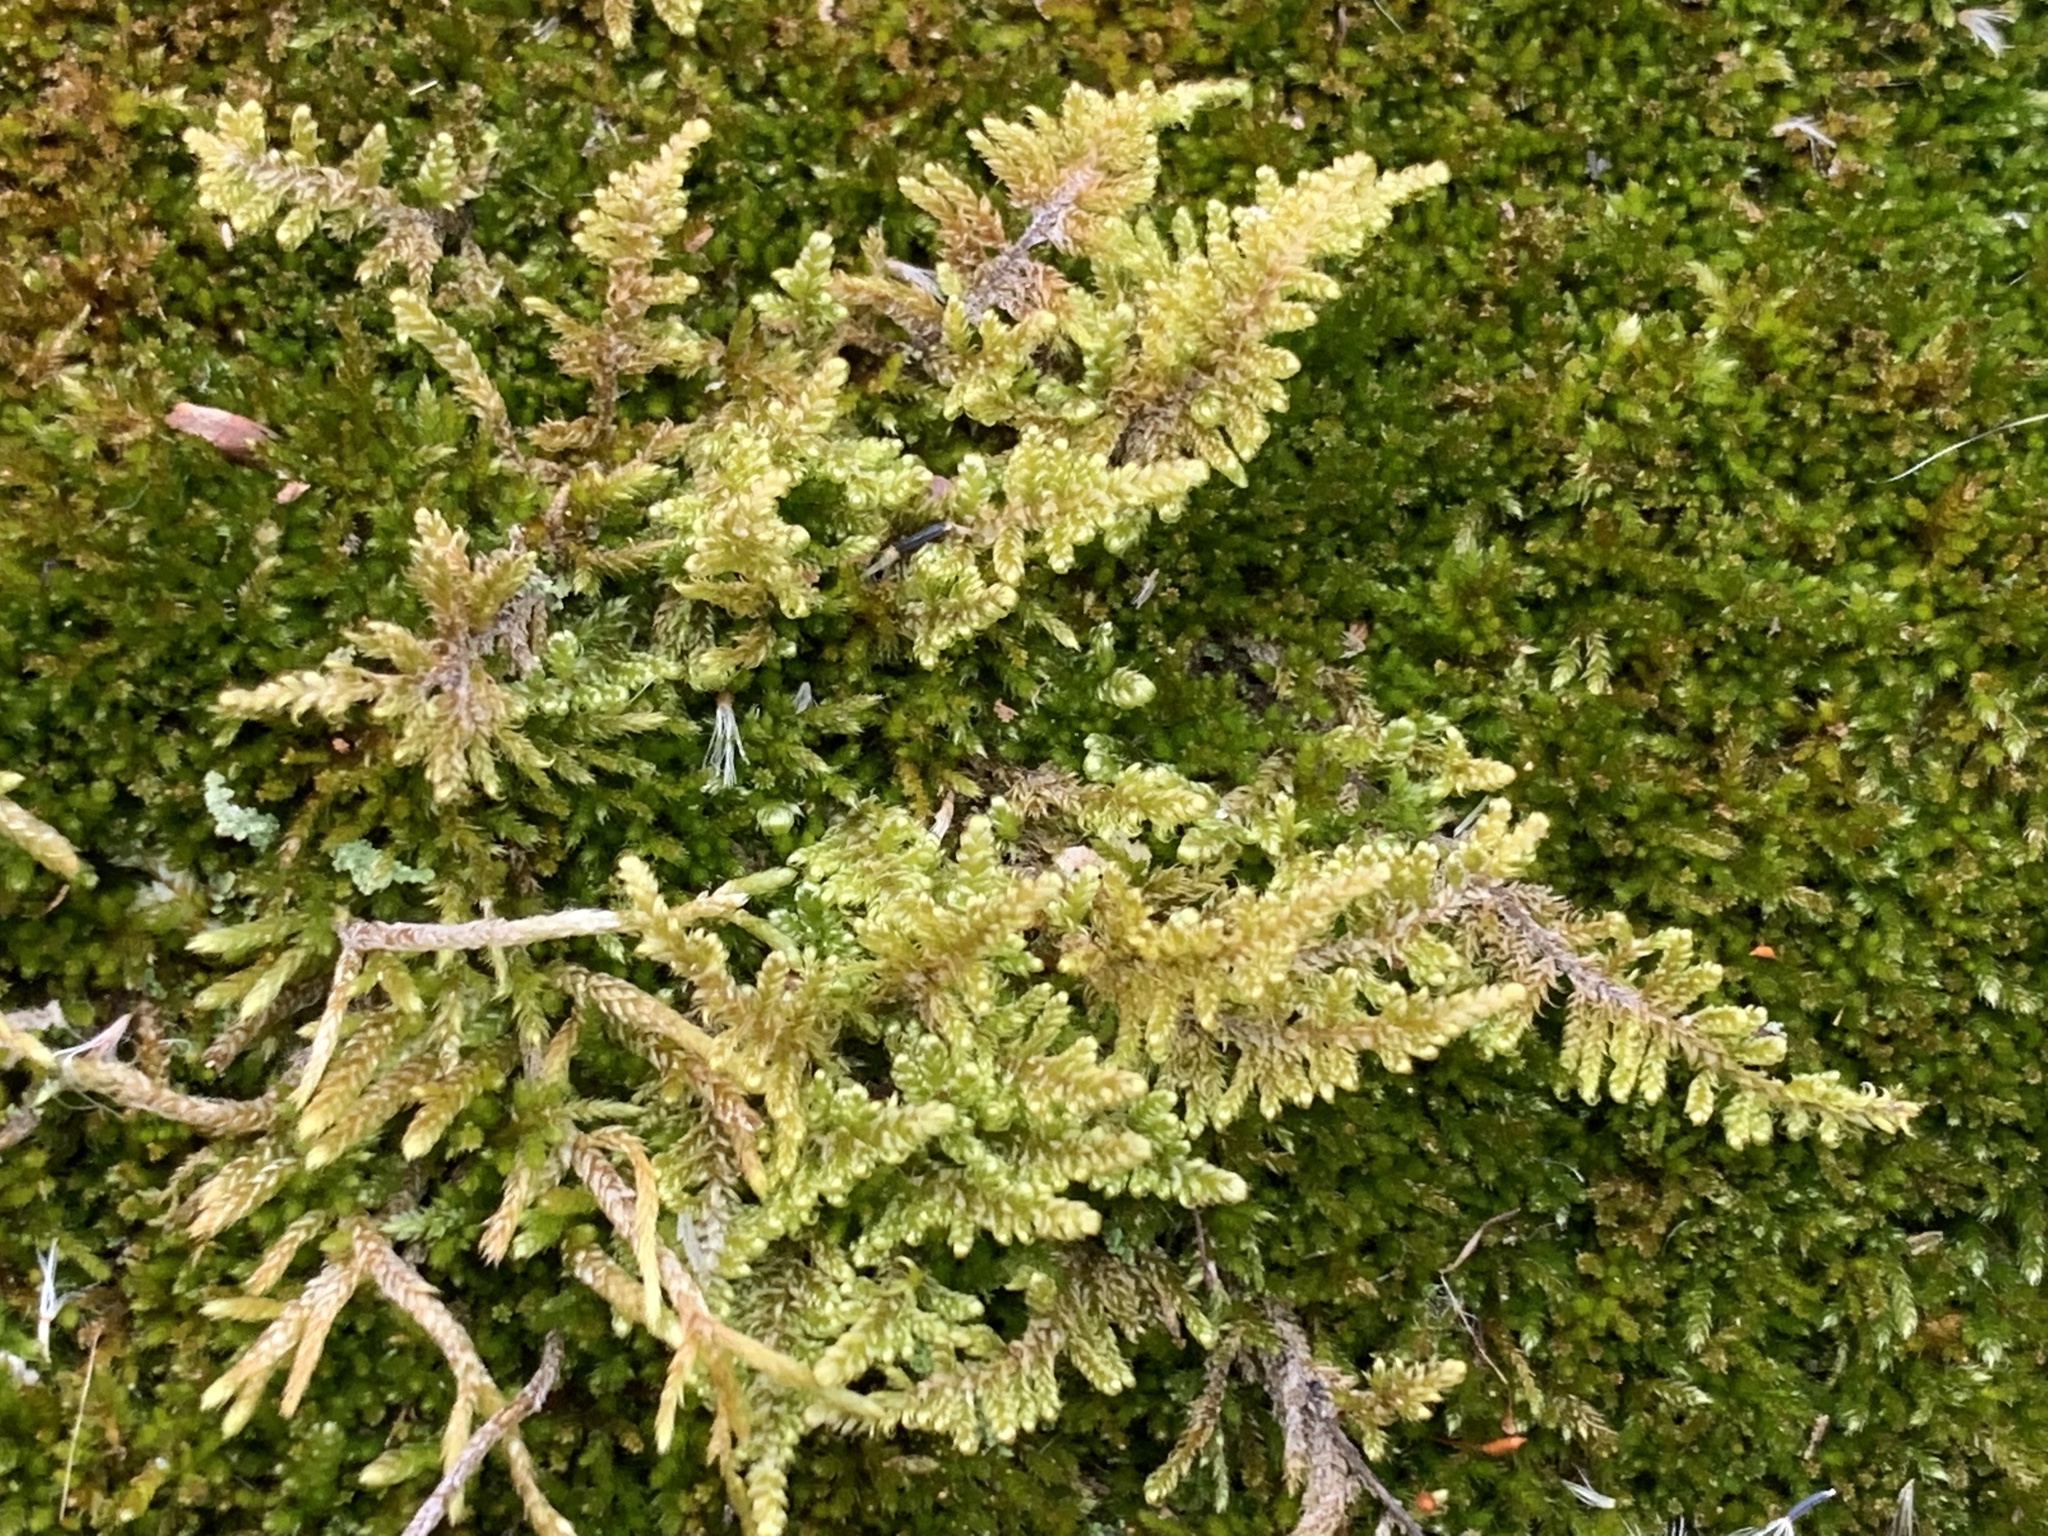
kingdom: Plantae
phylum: Bryophyta
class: Bryopsida
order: Hypnales
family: Callicladiaceae
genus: Callicladium
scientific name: Callicladium imponens
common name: Brocade moss
